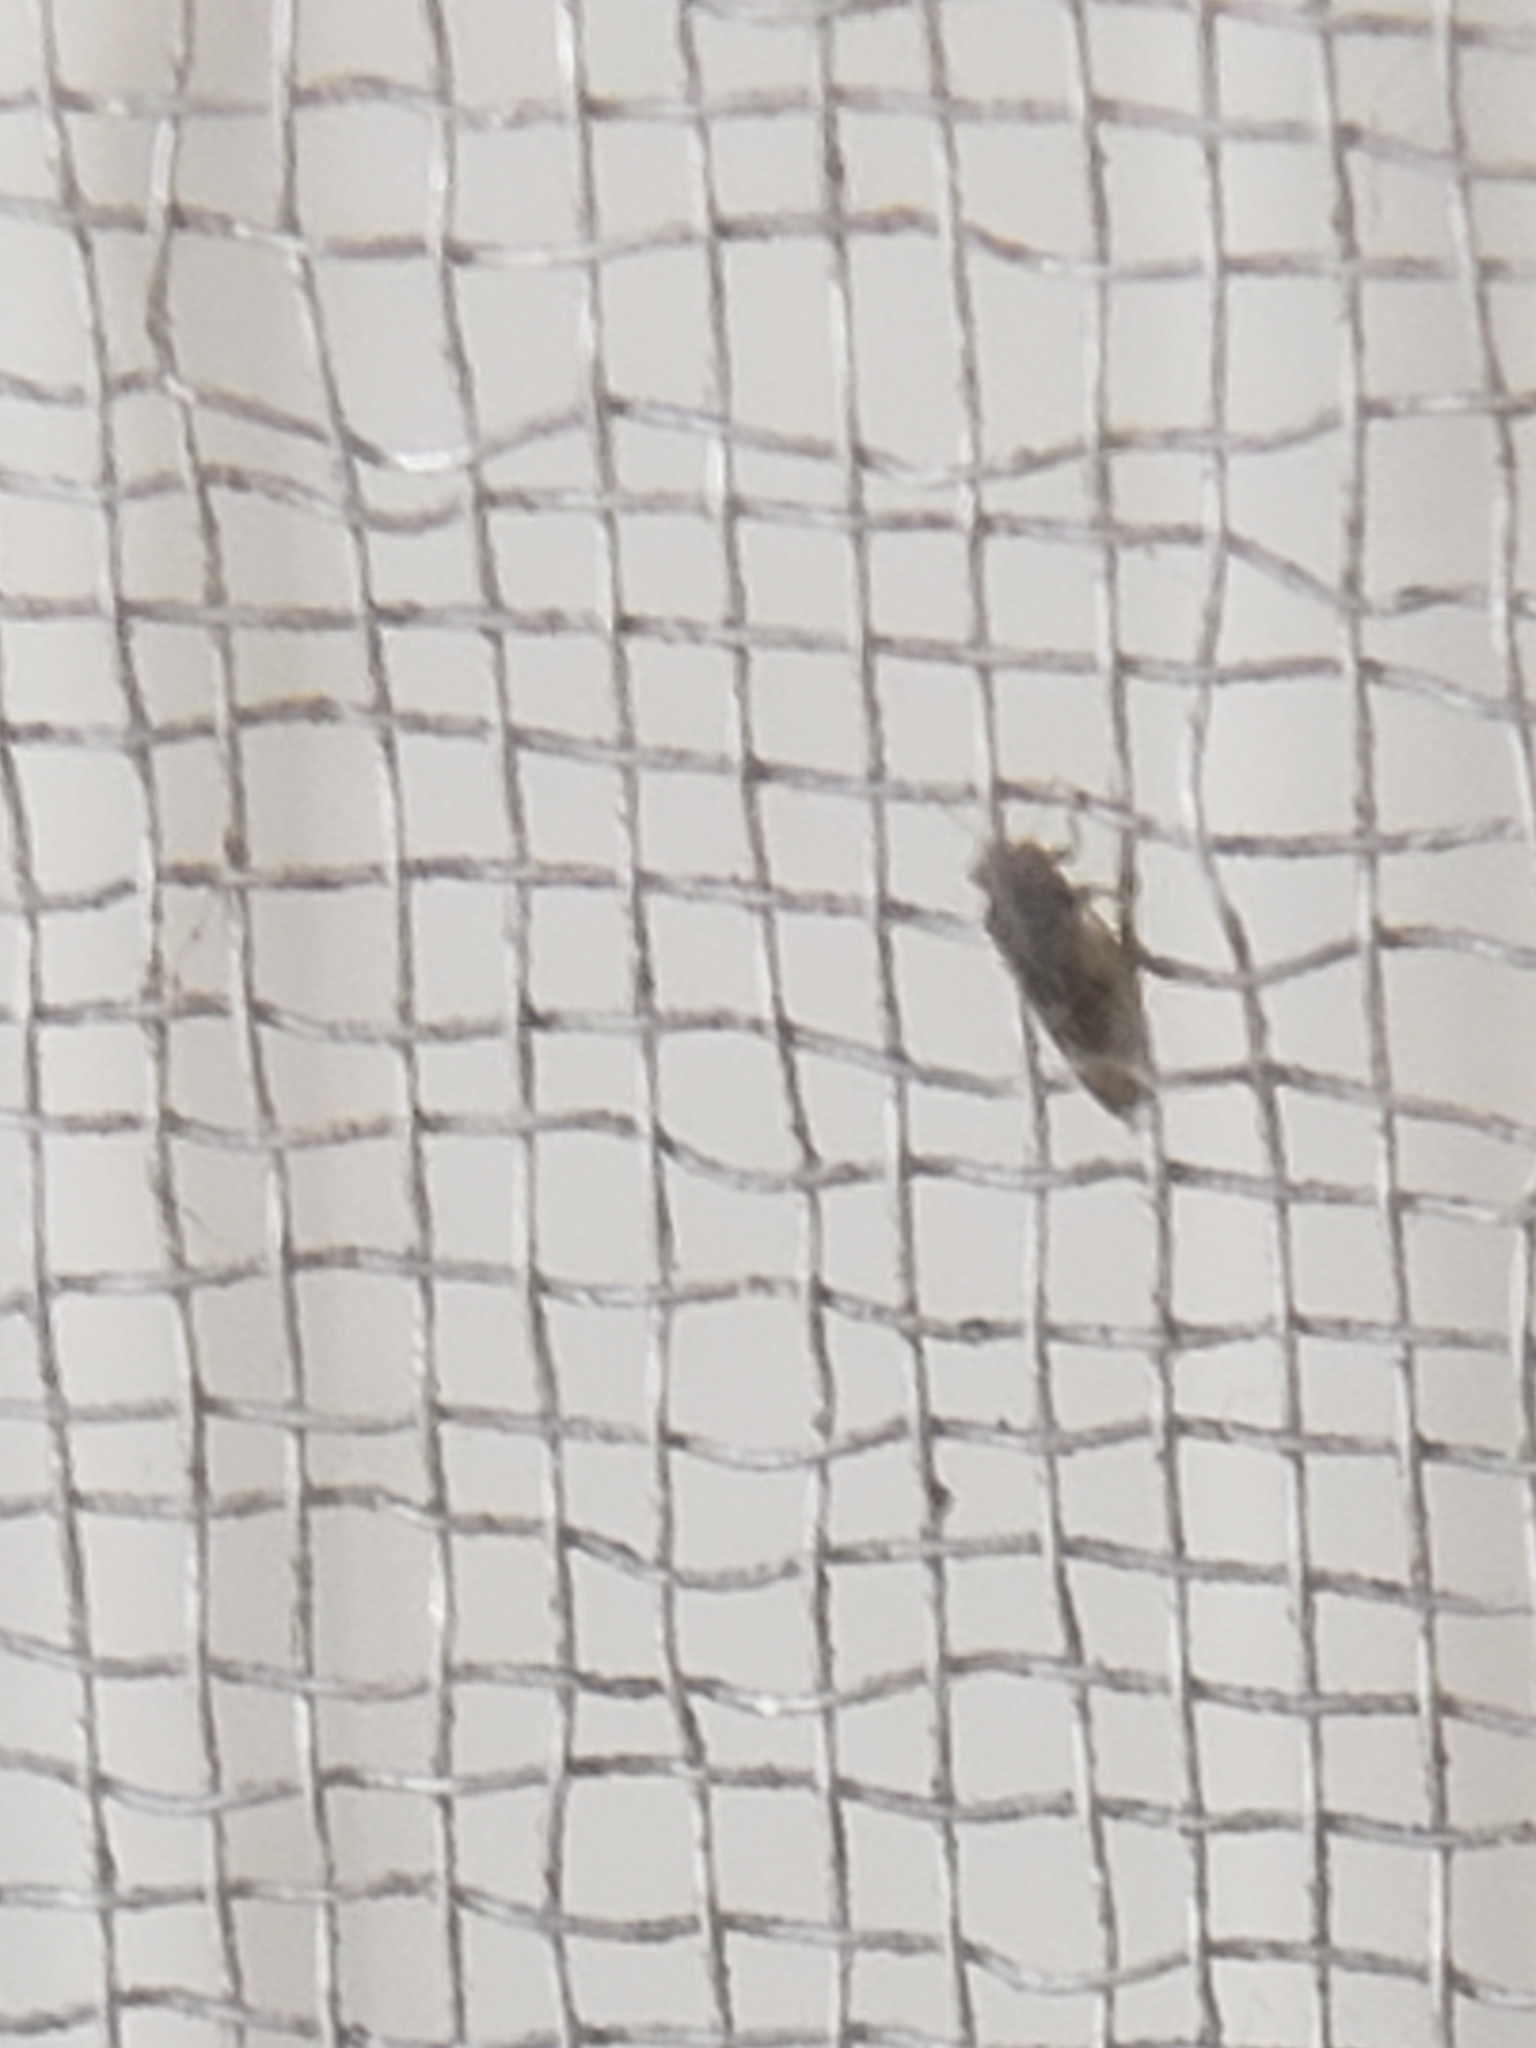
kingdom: Animalia
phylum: Arthropoda
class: Insecta
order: Hemiptera
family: Aphalaridae
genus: Pachypsylla
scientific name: Pachypsylla celtidismamma
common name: Hackberry nipplegall psyllid
